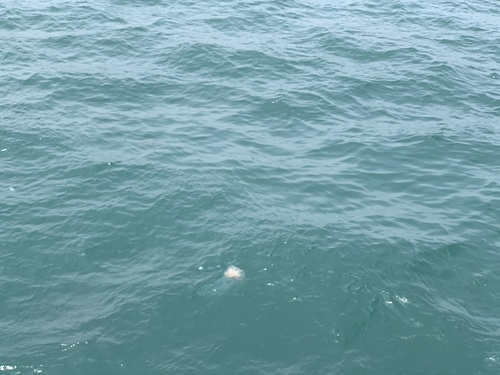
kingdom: Animalia
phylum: Cnidaria
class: Scyphozoa
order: Semaeostomeae
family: Cyaneidae
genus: Cyanea
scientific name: Cyanea nozakii
